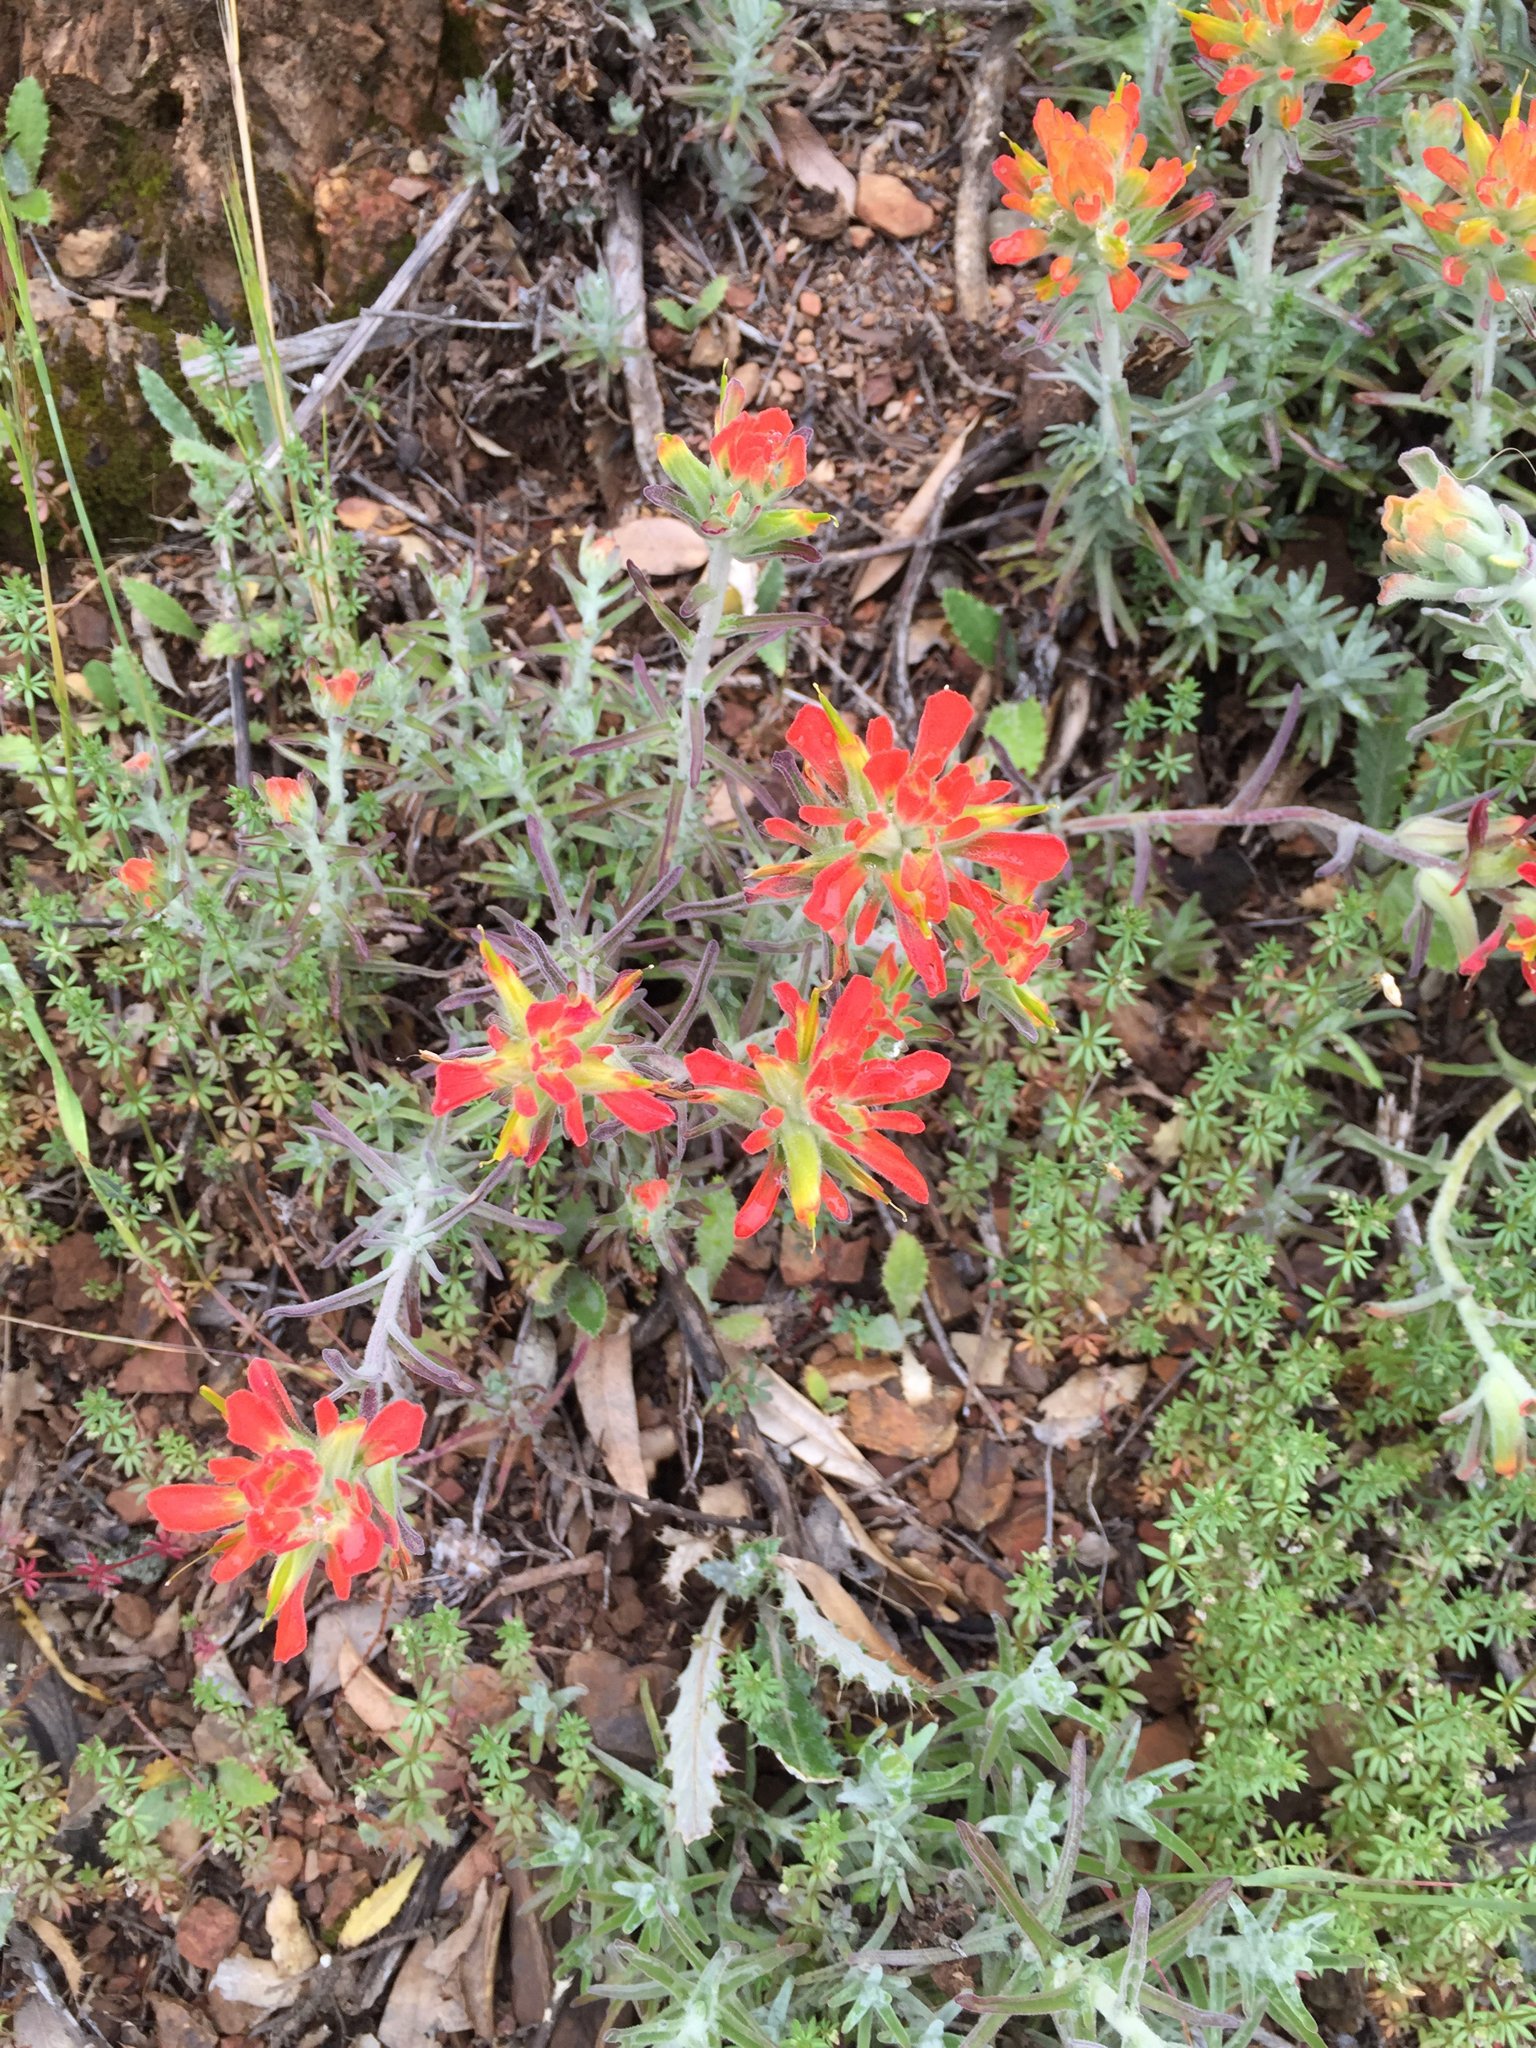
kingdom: Plantae
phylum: Tracheophyta
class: Magnoliopsida
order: Lamiales
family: Orobanchaceae
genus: Castilleja
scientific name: Castilleja foliolosa
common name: Woolly indian paintbrush
